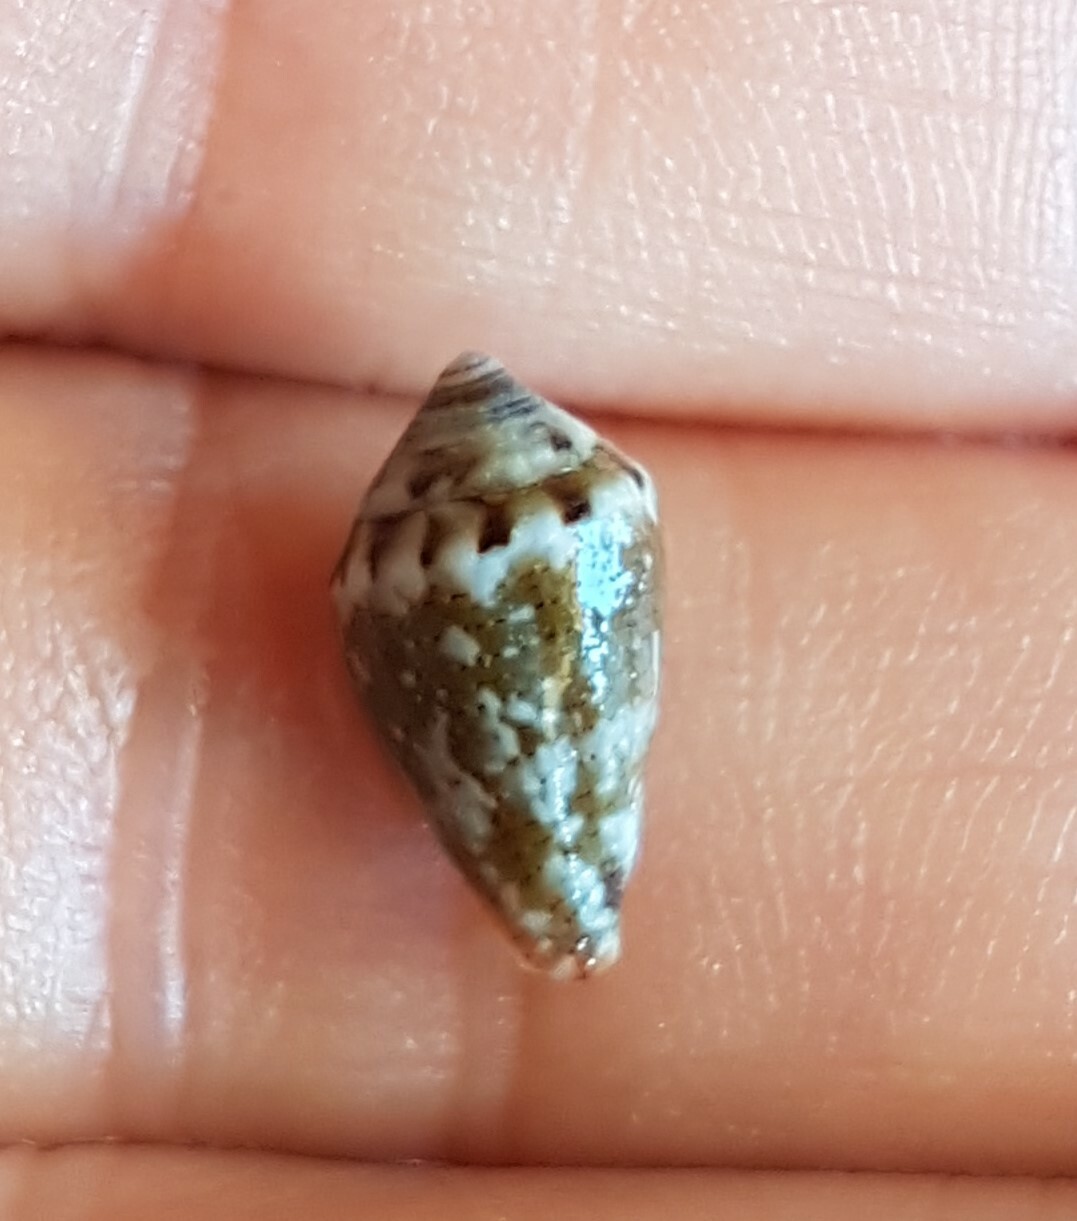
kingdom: Animalia
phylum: Mollusca
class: Gastropoda
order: Neogastropoda
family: Conidae
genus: Conus
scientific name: Conus ventricosus
